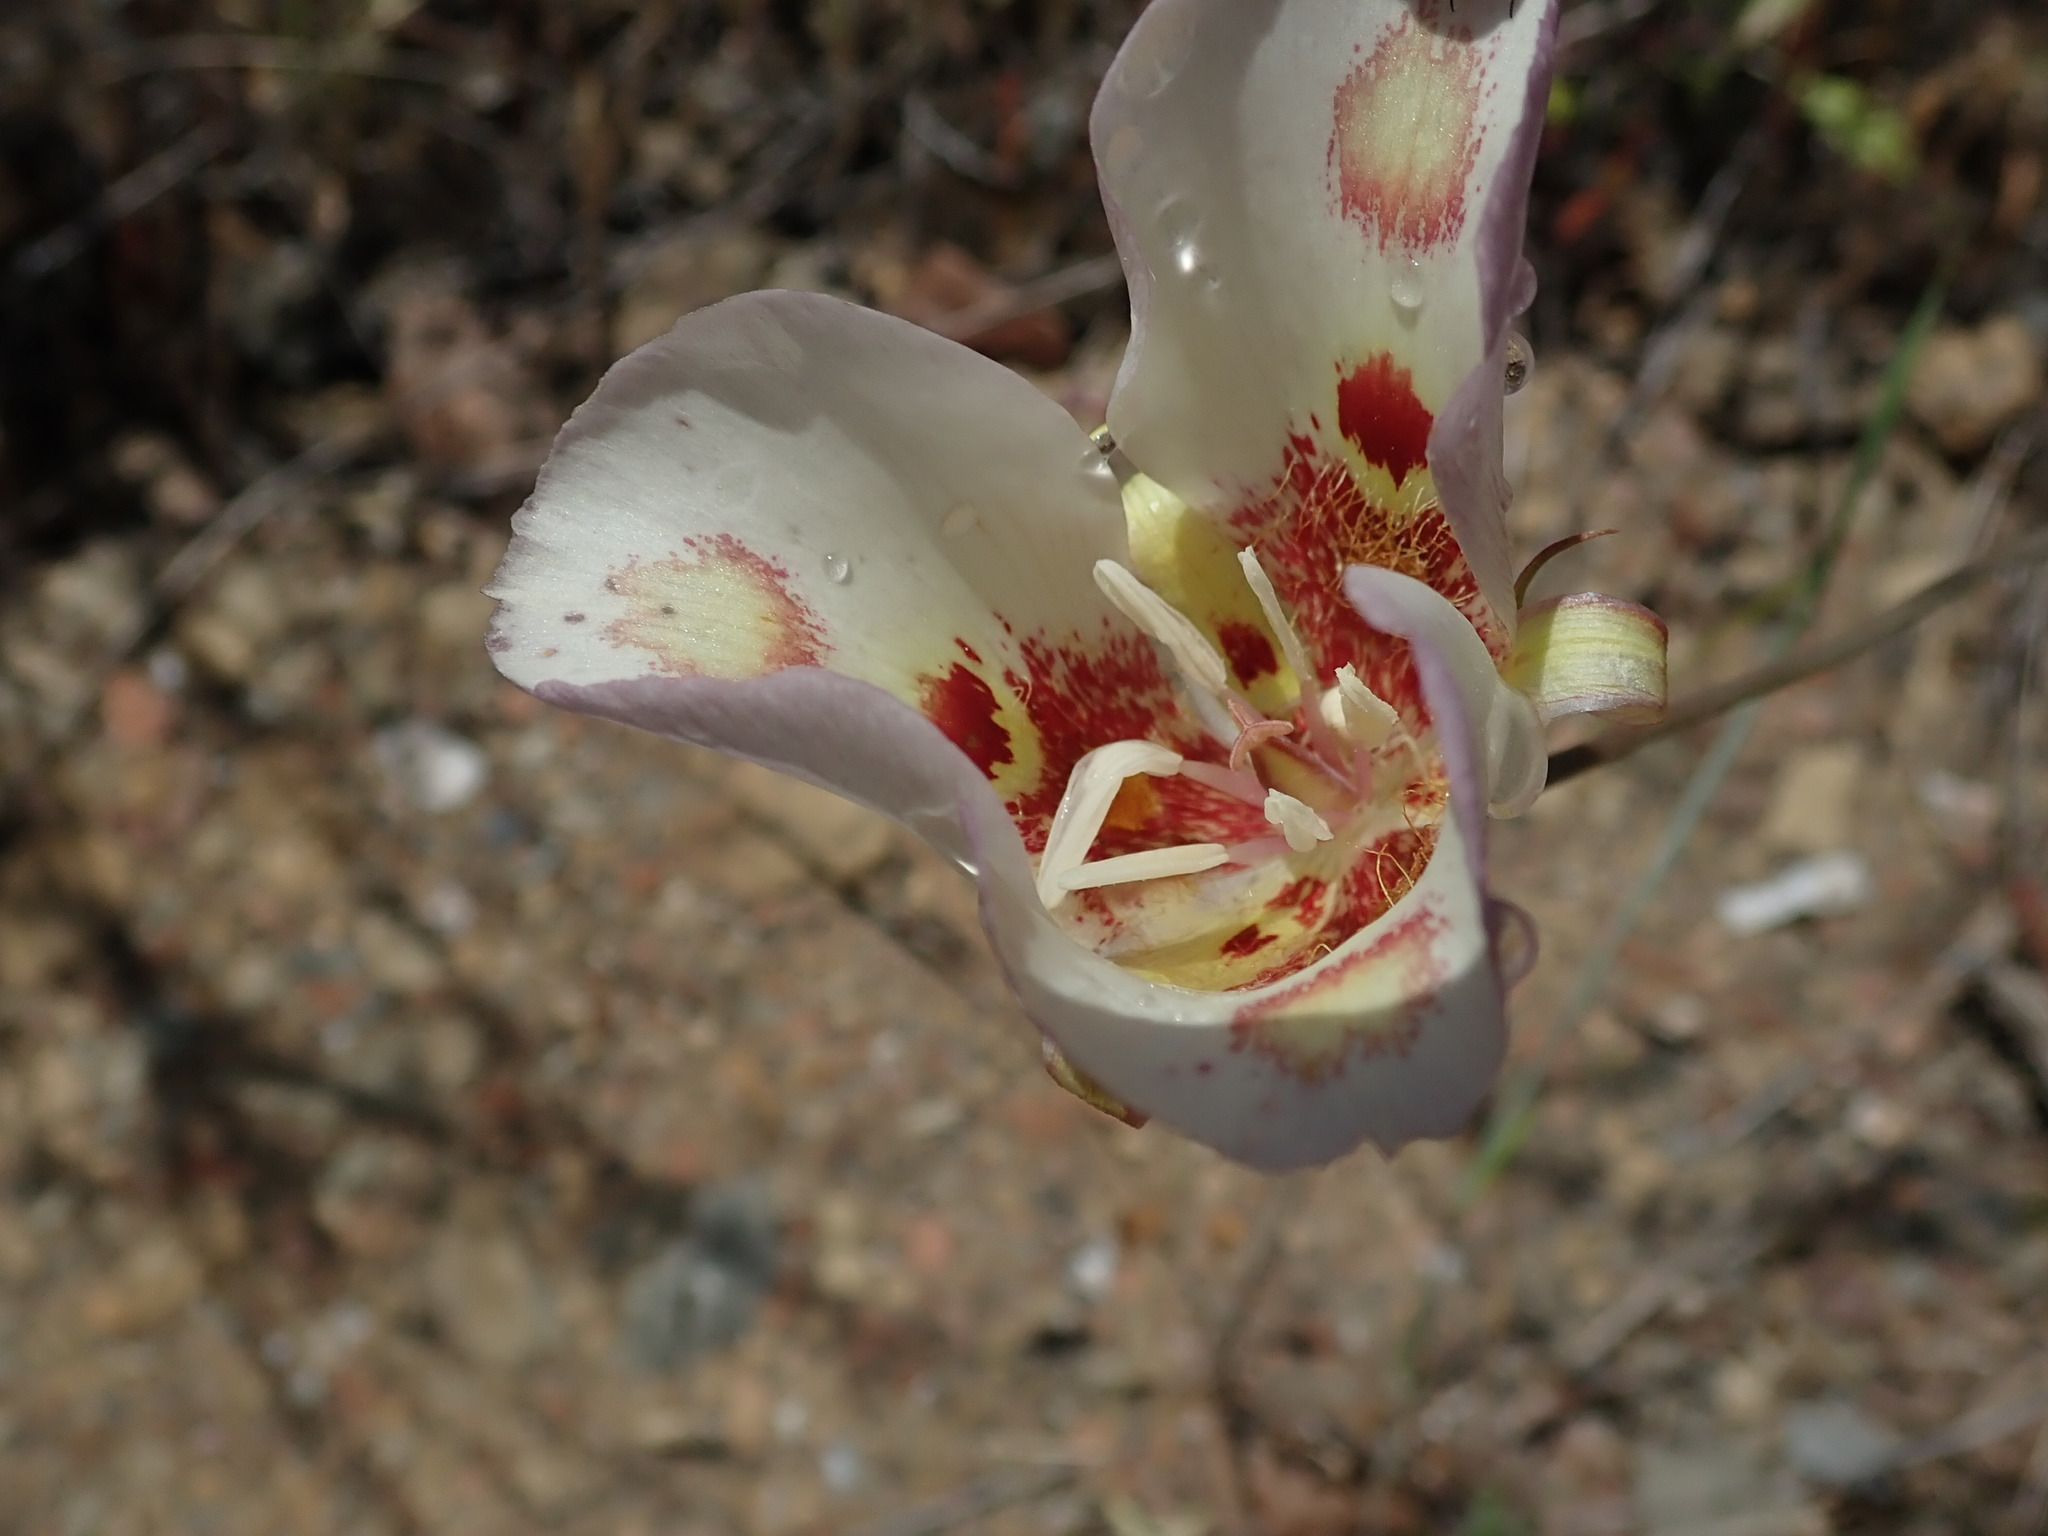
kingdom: Plantae
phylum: Tracheophyta
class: Liliopsida
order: Liliales
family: Liliaceae
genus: Calochortus
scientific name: Calochortus venustus
